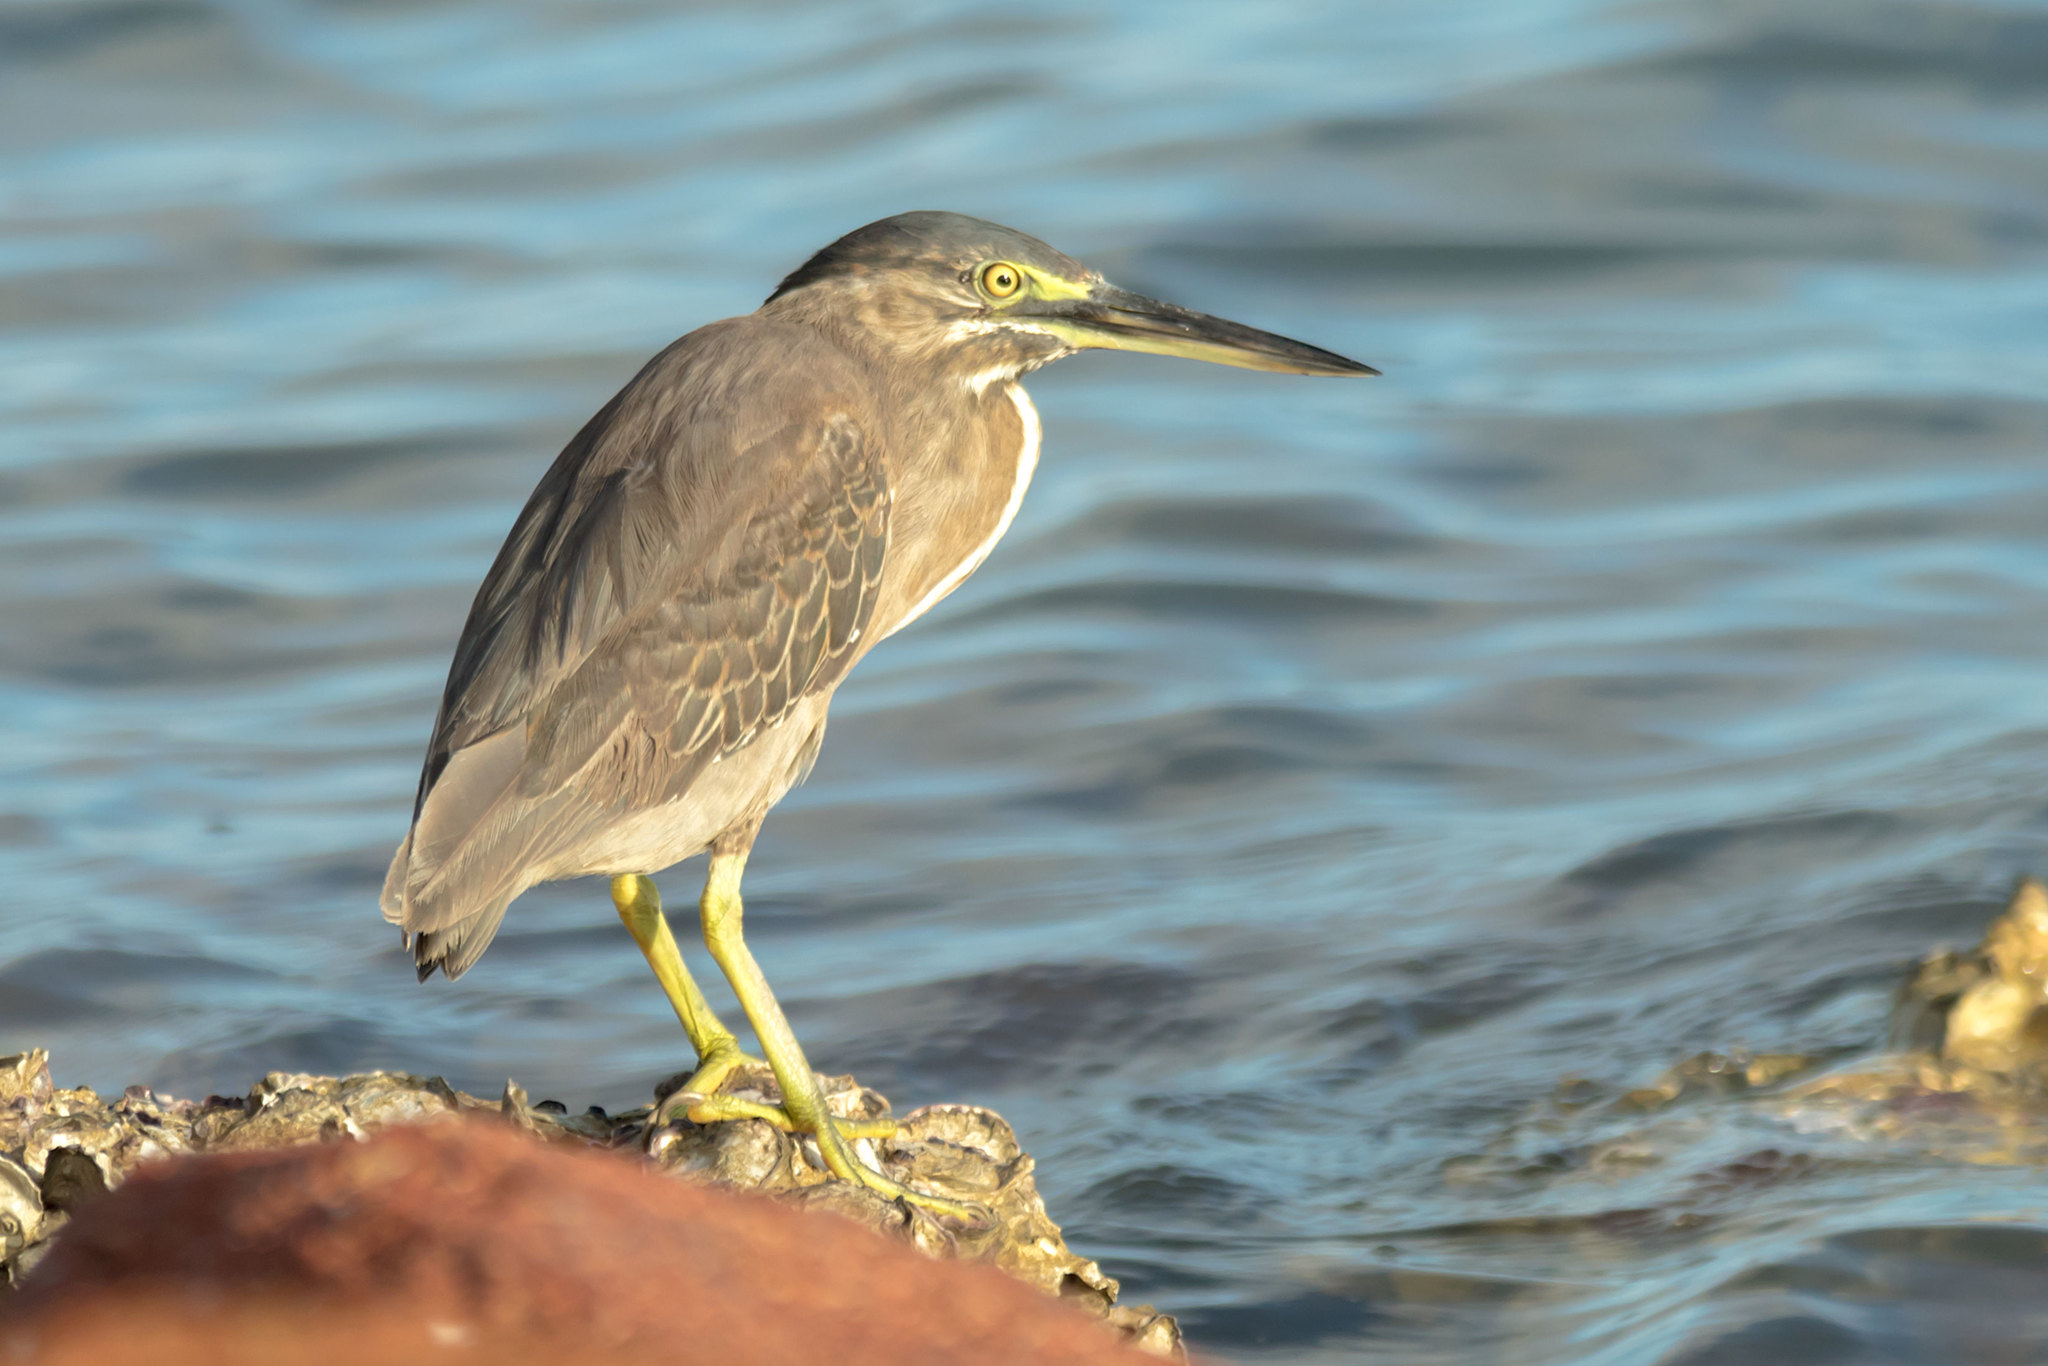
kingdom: Animalia
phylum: Chordata
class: Aves
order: Pelecaniformes
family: Ardeidae
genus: Butorides
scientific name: Butorides striata
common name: Striated heron
